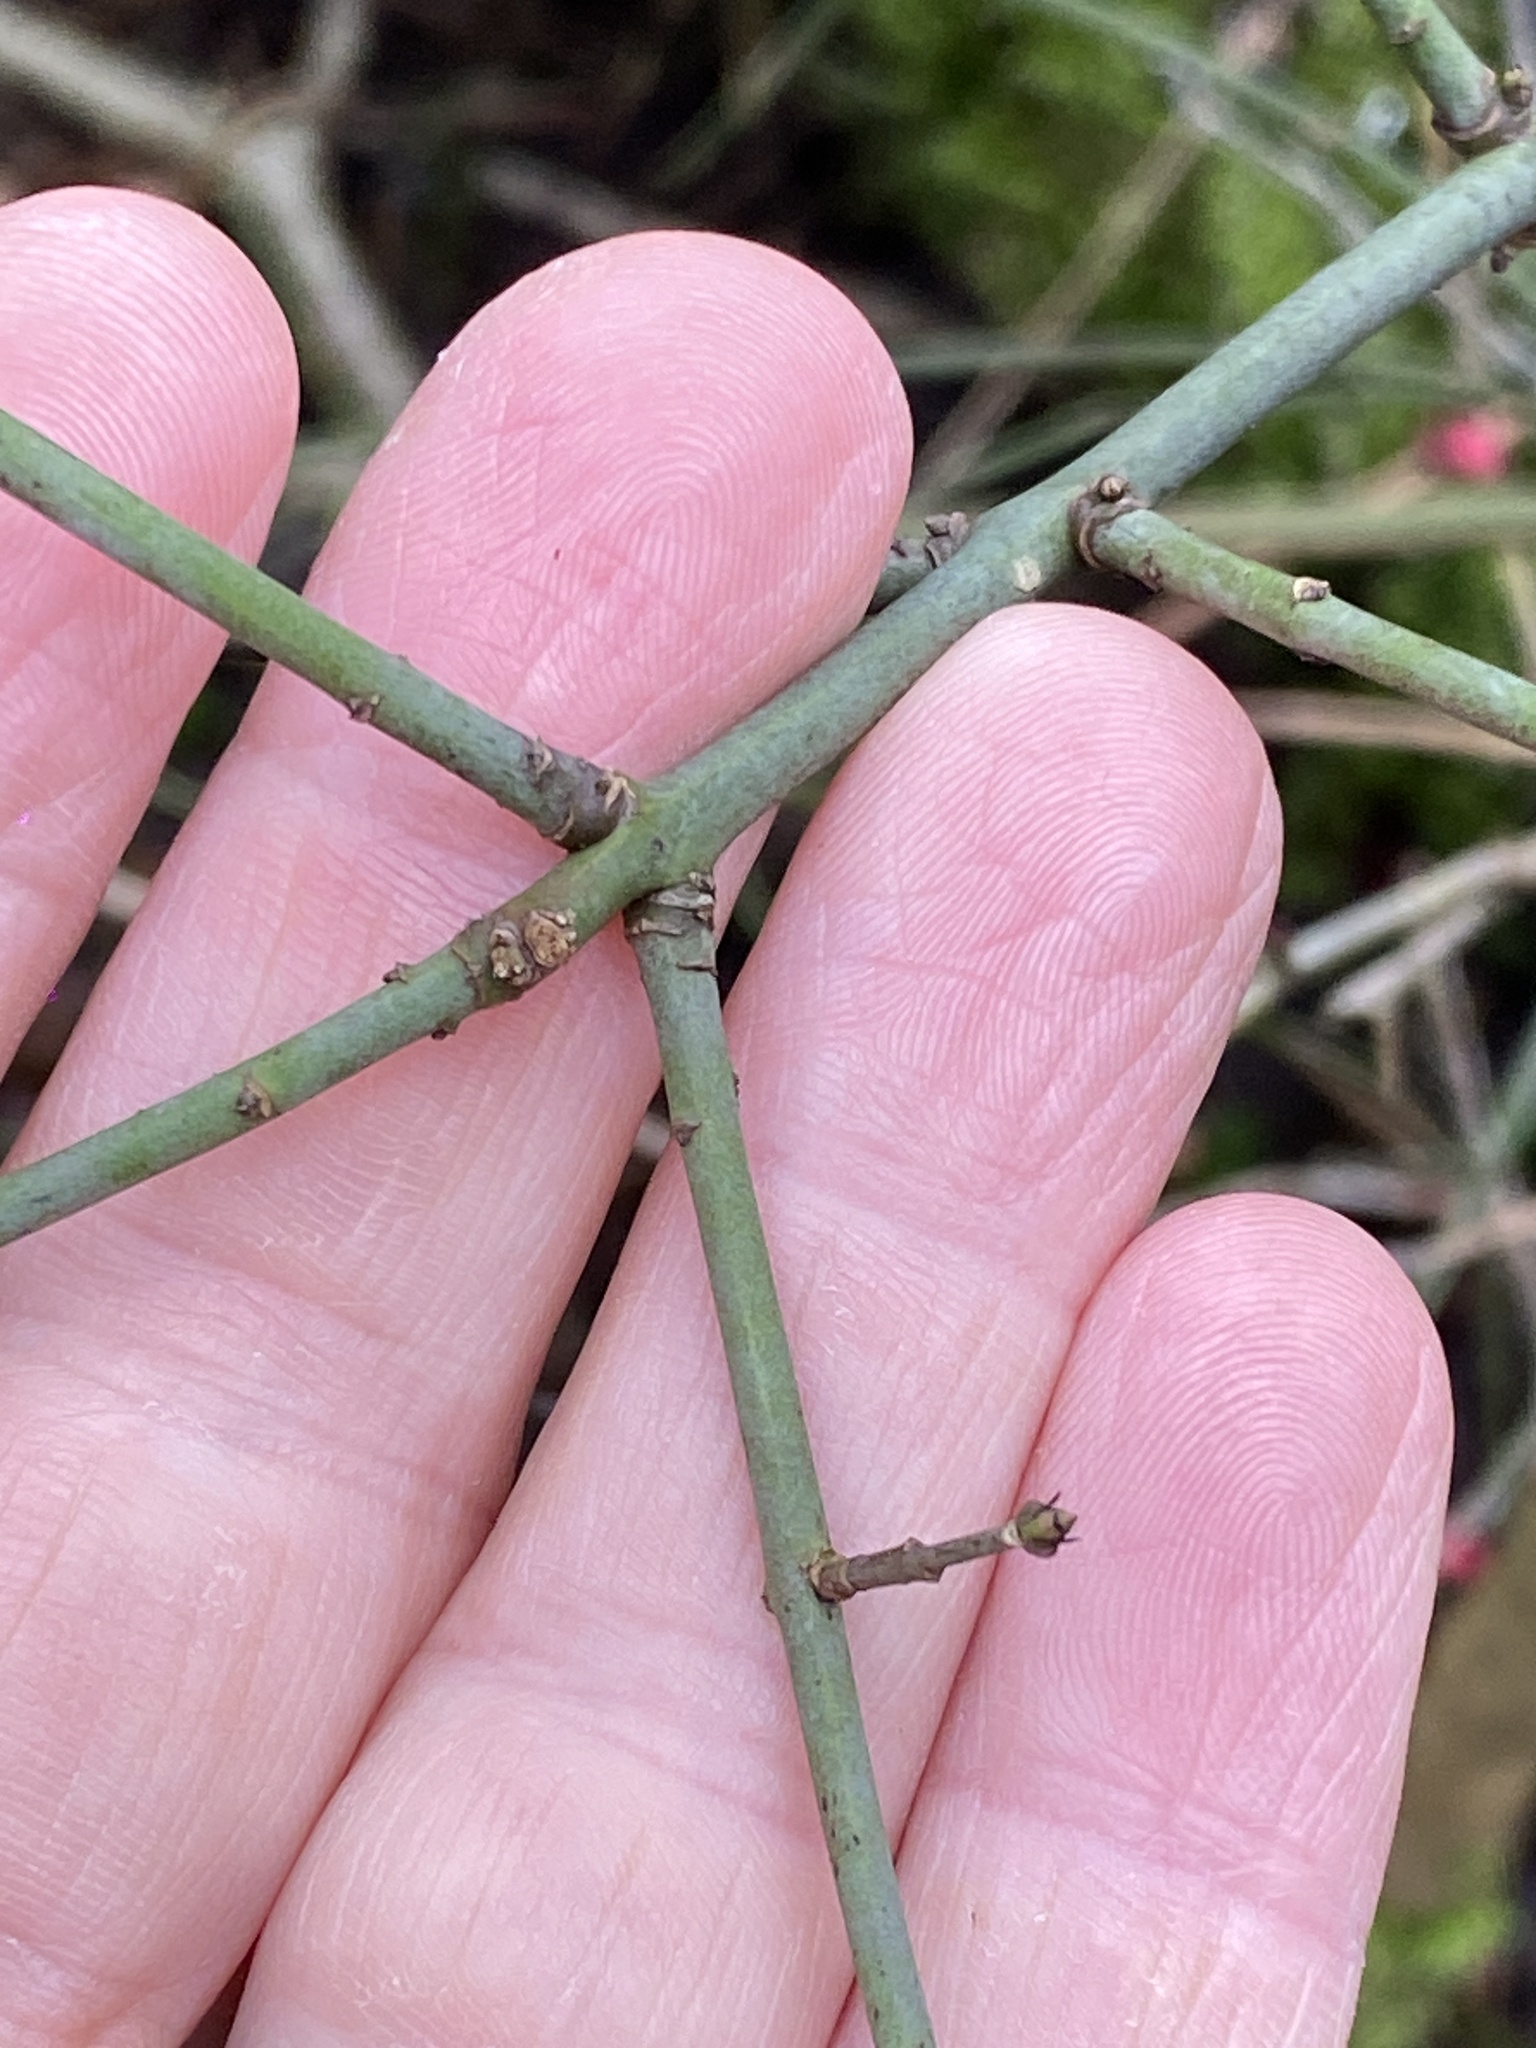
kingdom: Plantae
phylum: Tracheophyta
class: Magnoliopsida
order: Celastrales
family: Celastraceae
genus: Euonymus
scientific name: Euonymus europaeus
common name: Spindle
